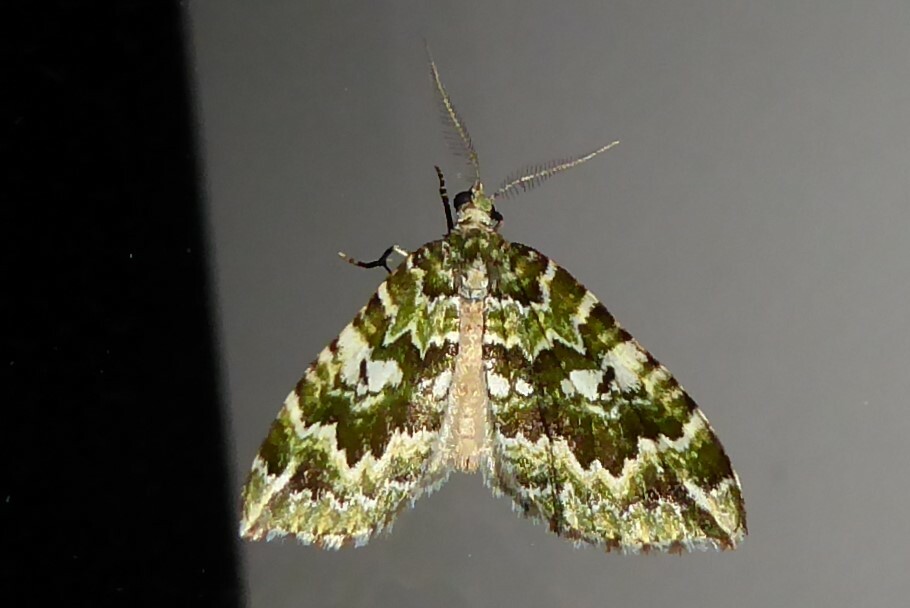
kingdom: Animalia
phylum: Arthropoda
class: Insecta
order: Lepidoptera
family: Geometridae
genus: Asaphodes
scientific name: Asaphodes beata
